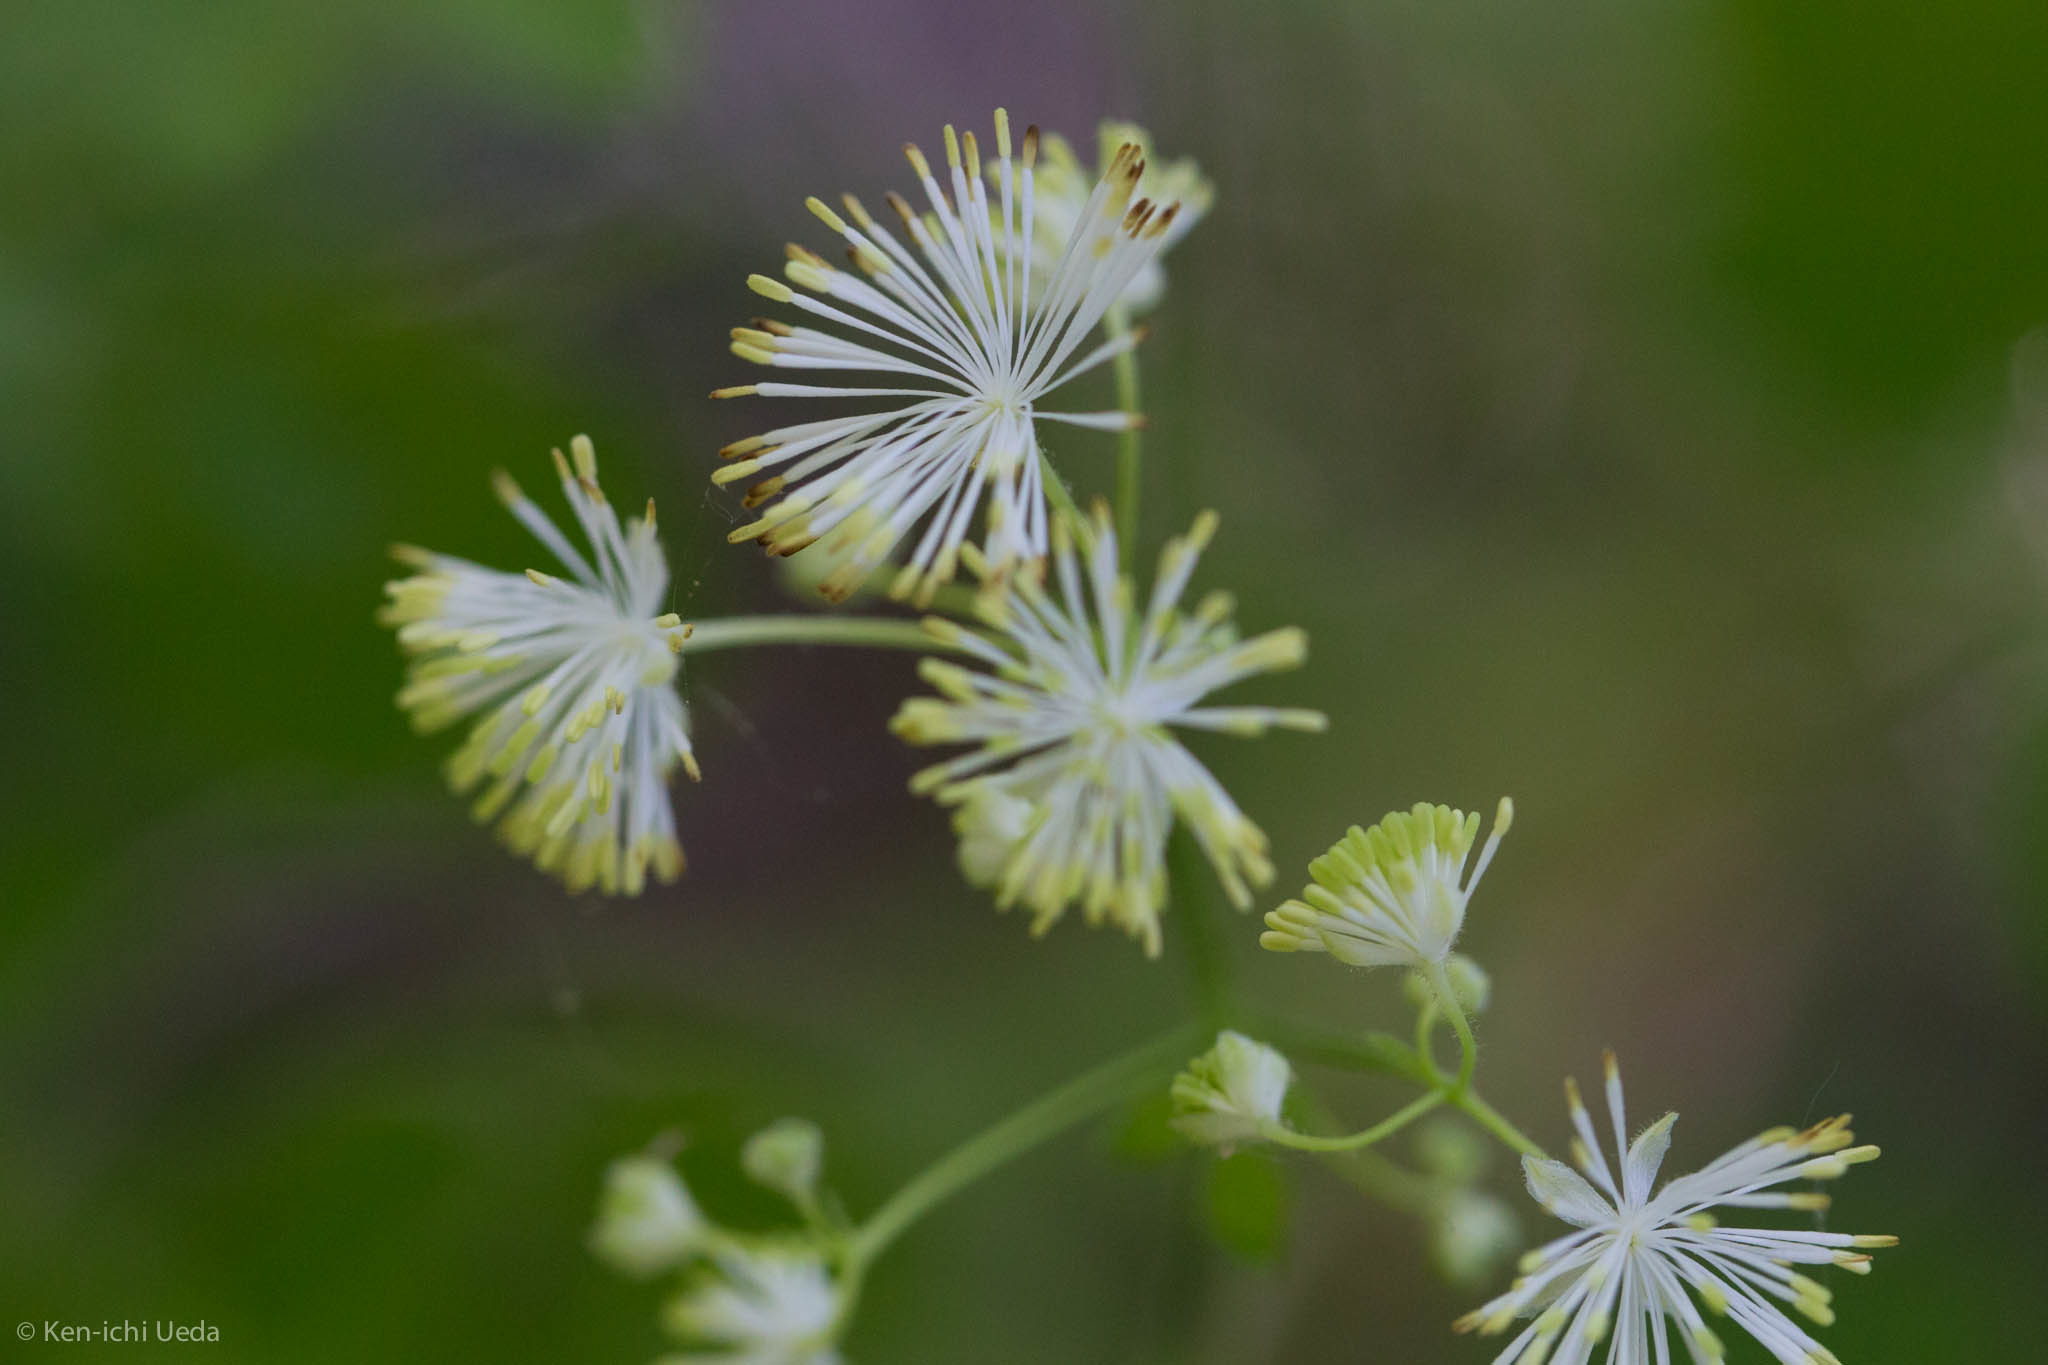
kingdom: Plantae
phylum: Tracheophyta
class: Magnoliopsida
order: Ranunculales
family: Ranunculaceae
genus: Thalictrum
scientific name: Thalictrum pubescens
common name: King-of-the-meadow
